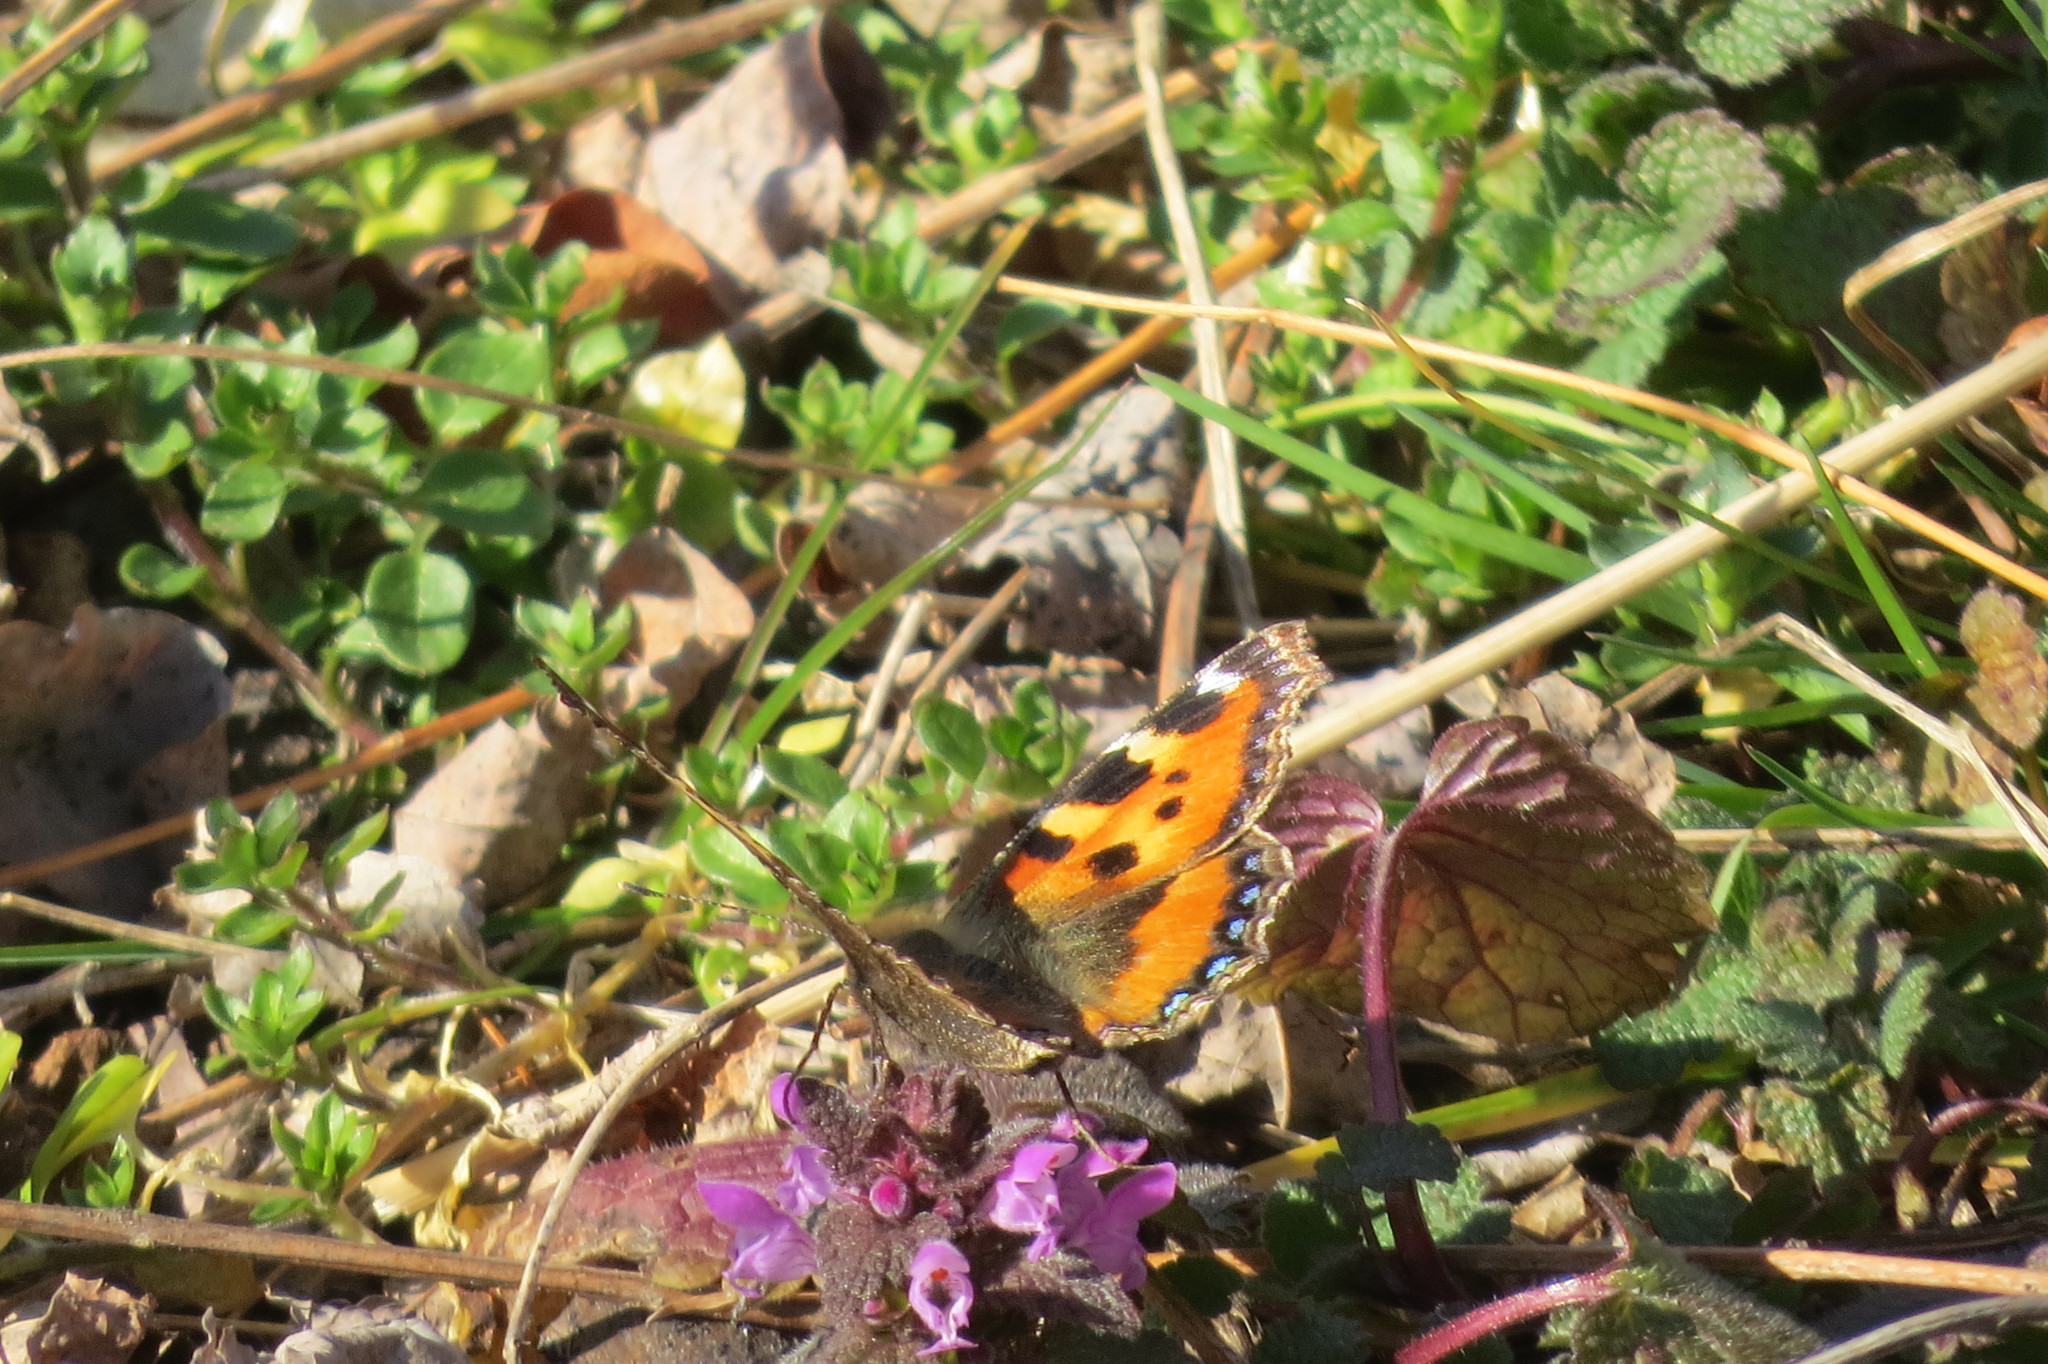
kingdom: Animalia
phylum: Arthropoda
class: Insecta
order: Lepidoptera
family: Nymphalidae
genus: Aglais
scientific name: Aglais urticae
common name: Small tortoiseshell
